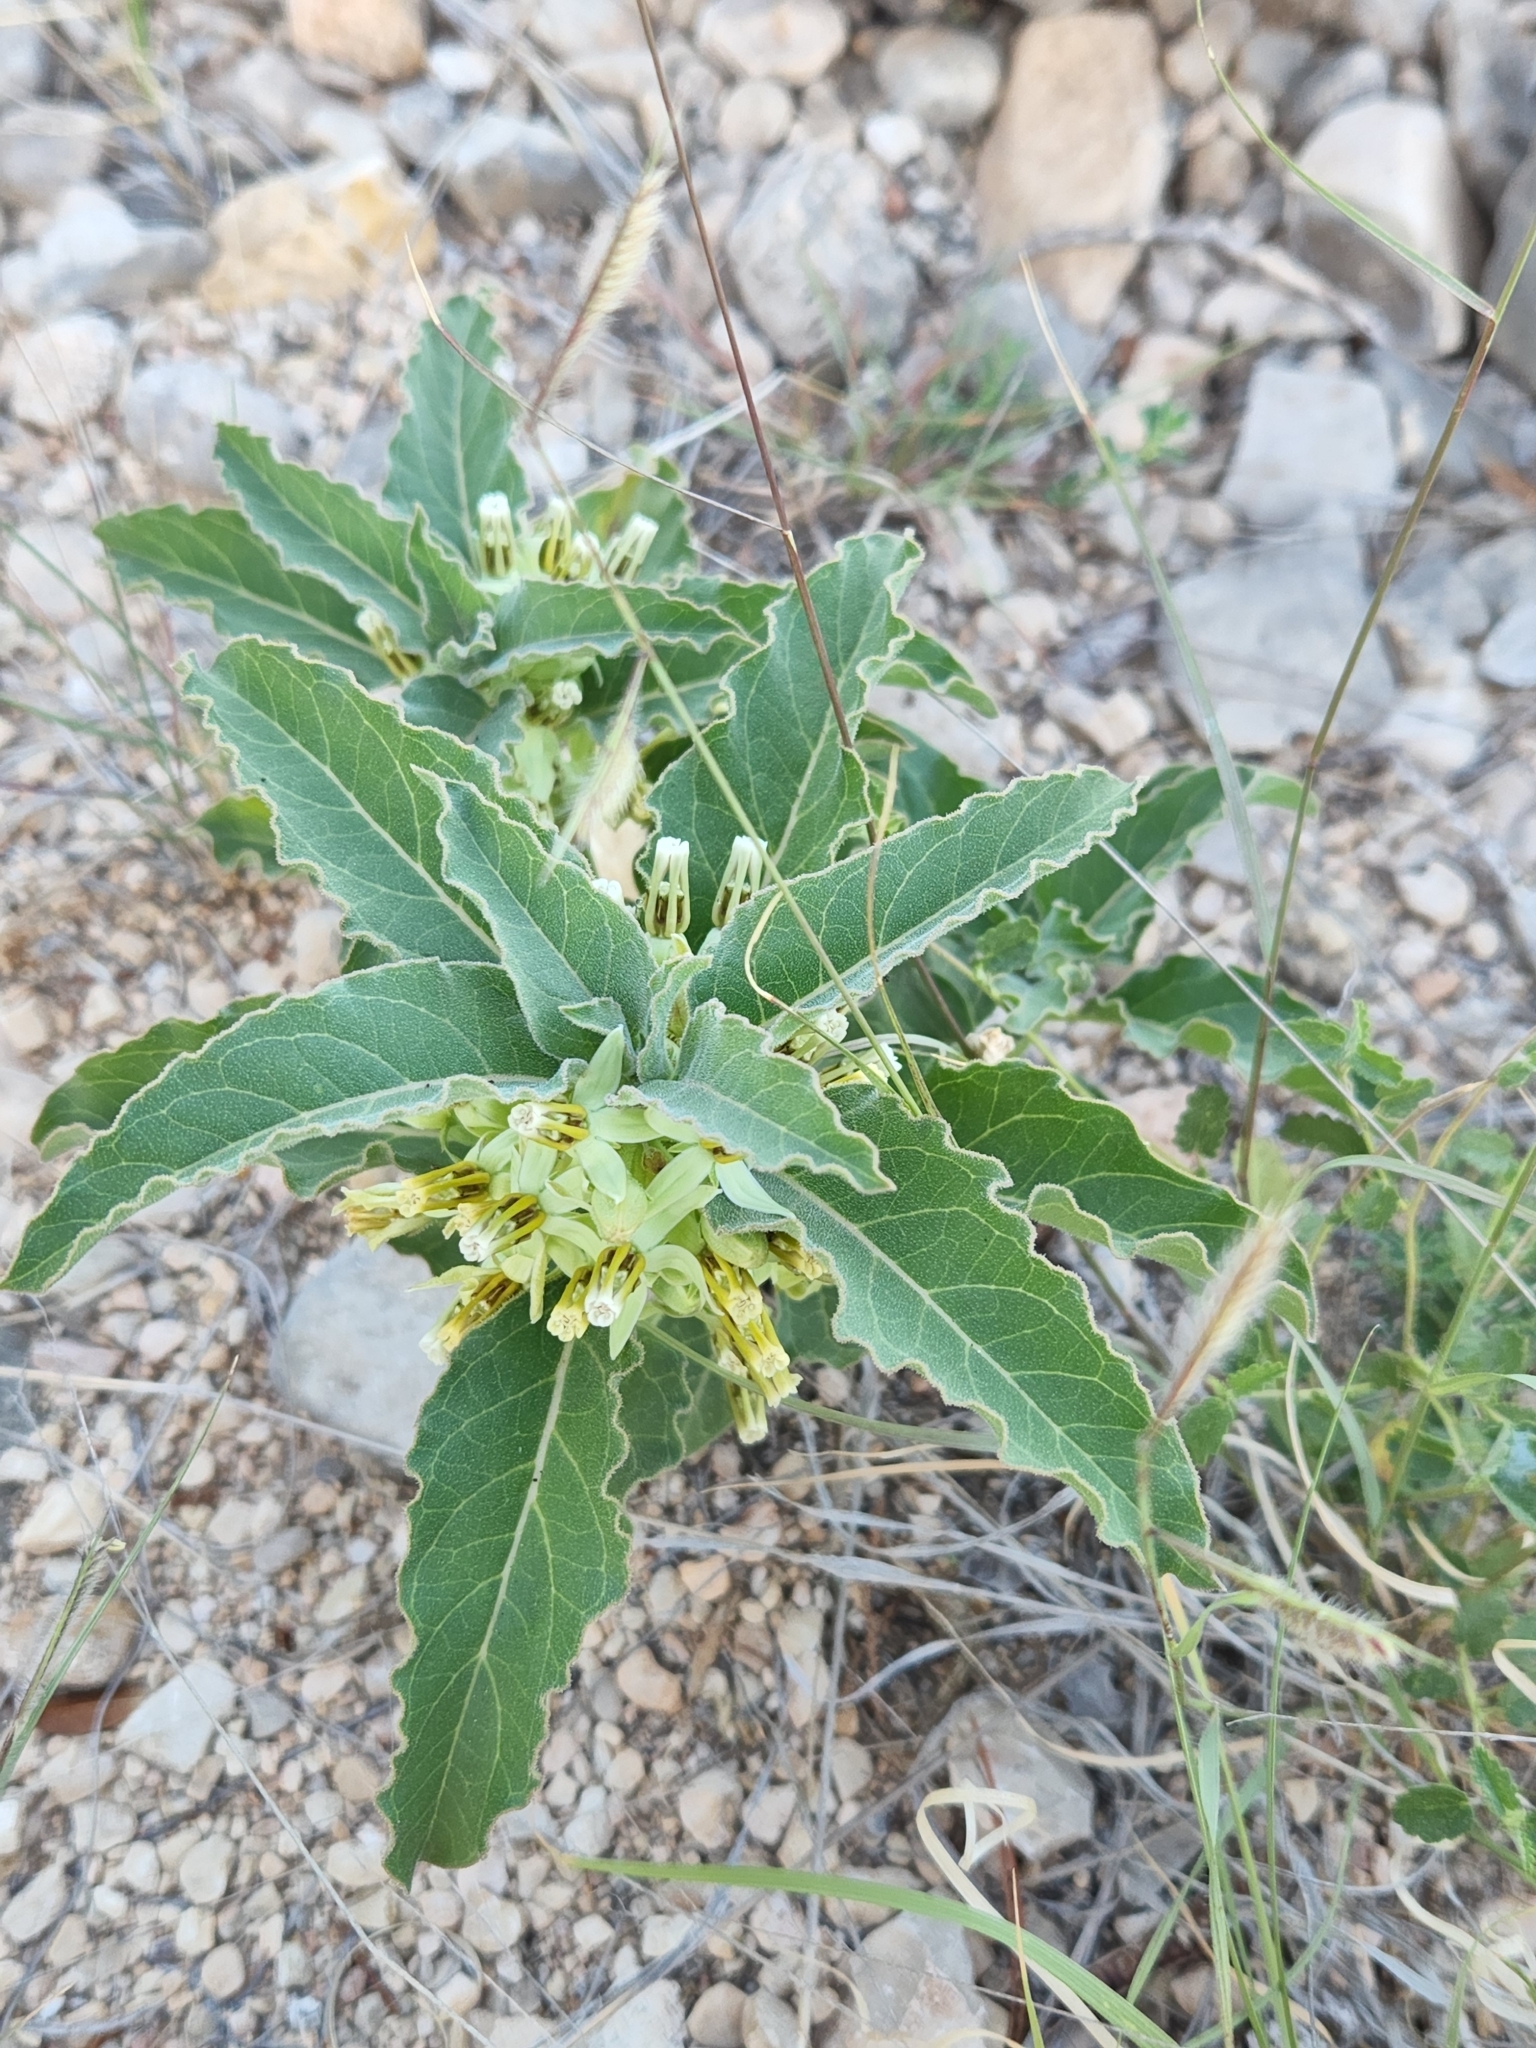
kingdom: Plantae
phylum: Tracheophyta
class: Magnoliopsida
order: Gentianales
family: Apocynaceae
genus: Asclepias
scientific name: Asclepias oenotheroides
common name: Zizotes milkweed
